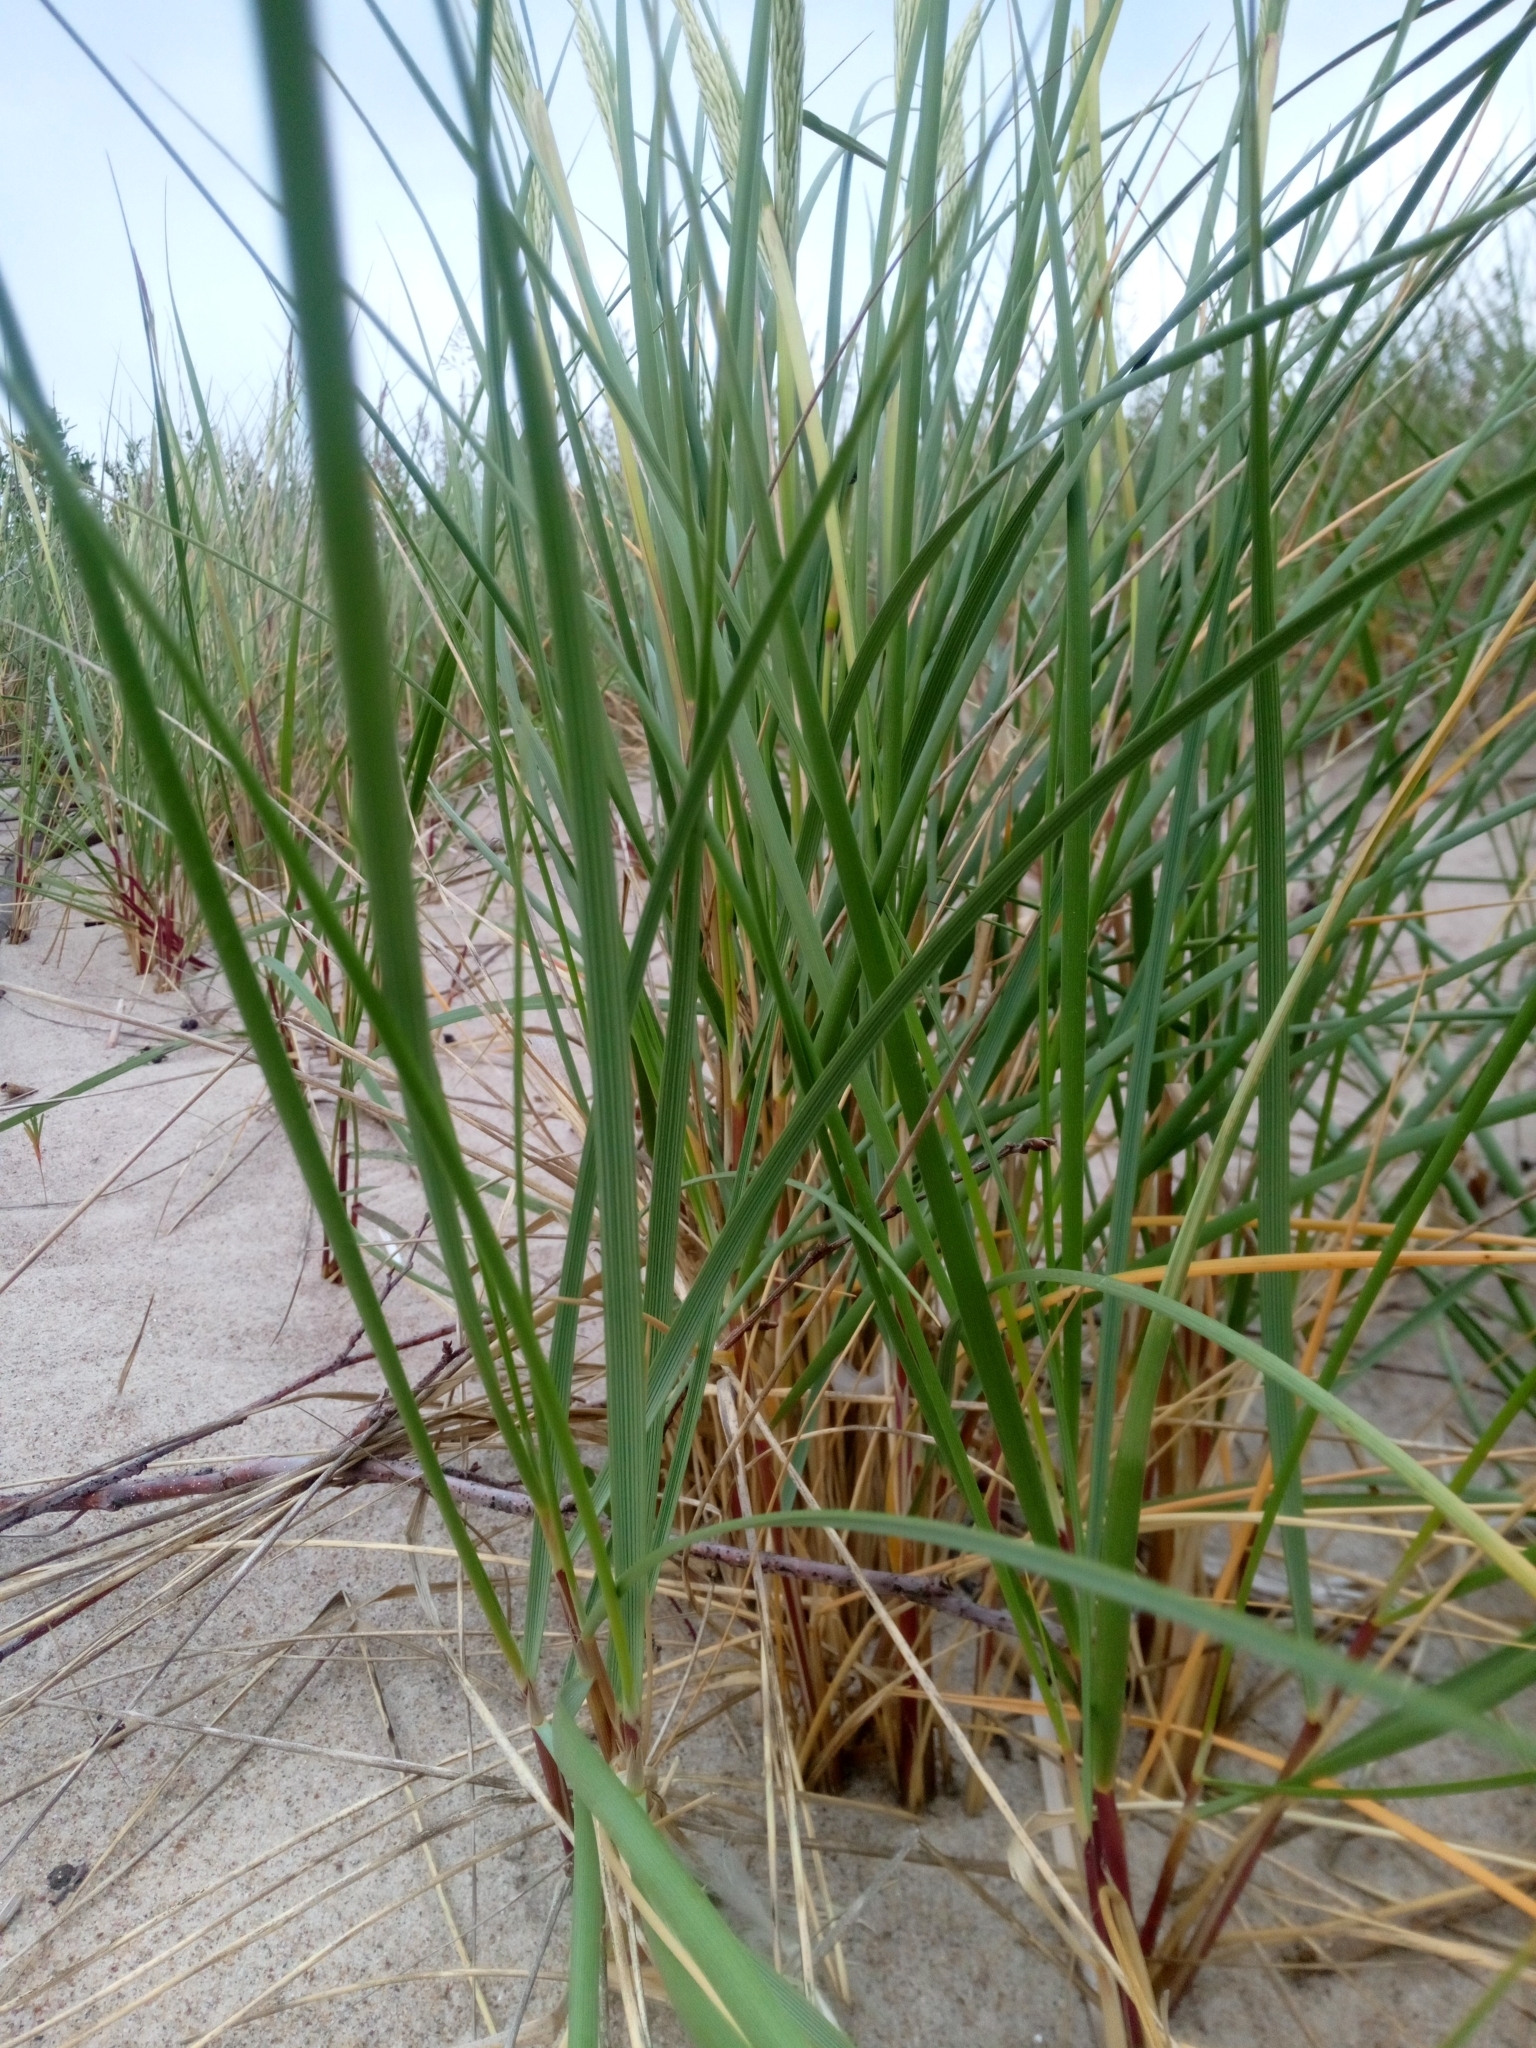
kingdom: Plantae
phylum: Tracheophyta
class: Liliopsida
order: Poales
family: Poaceae
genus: Calamagrostis
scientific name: Calamagrostis arenaria
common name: European beachgrass
